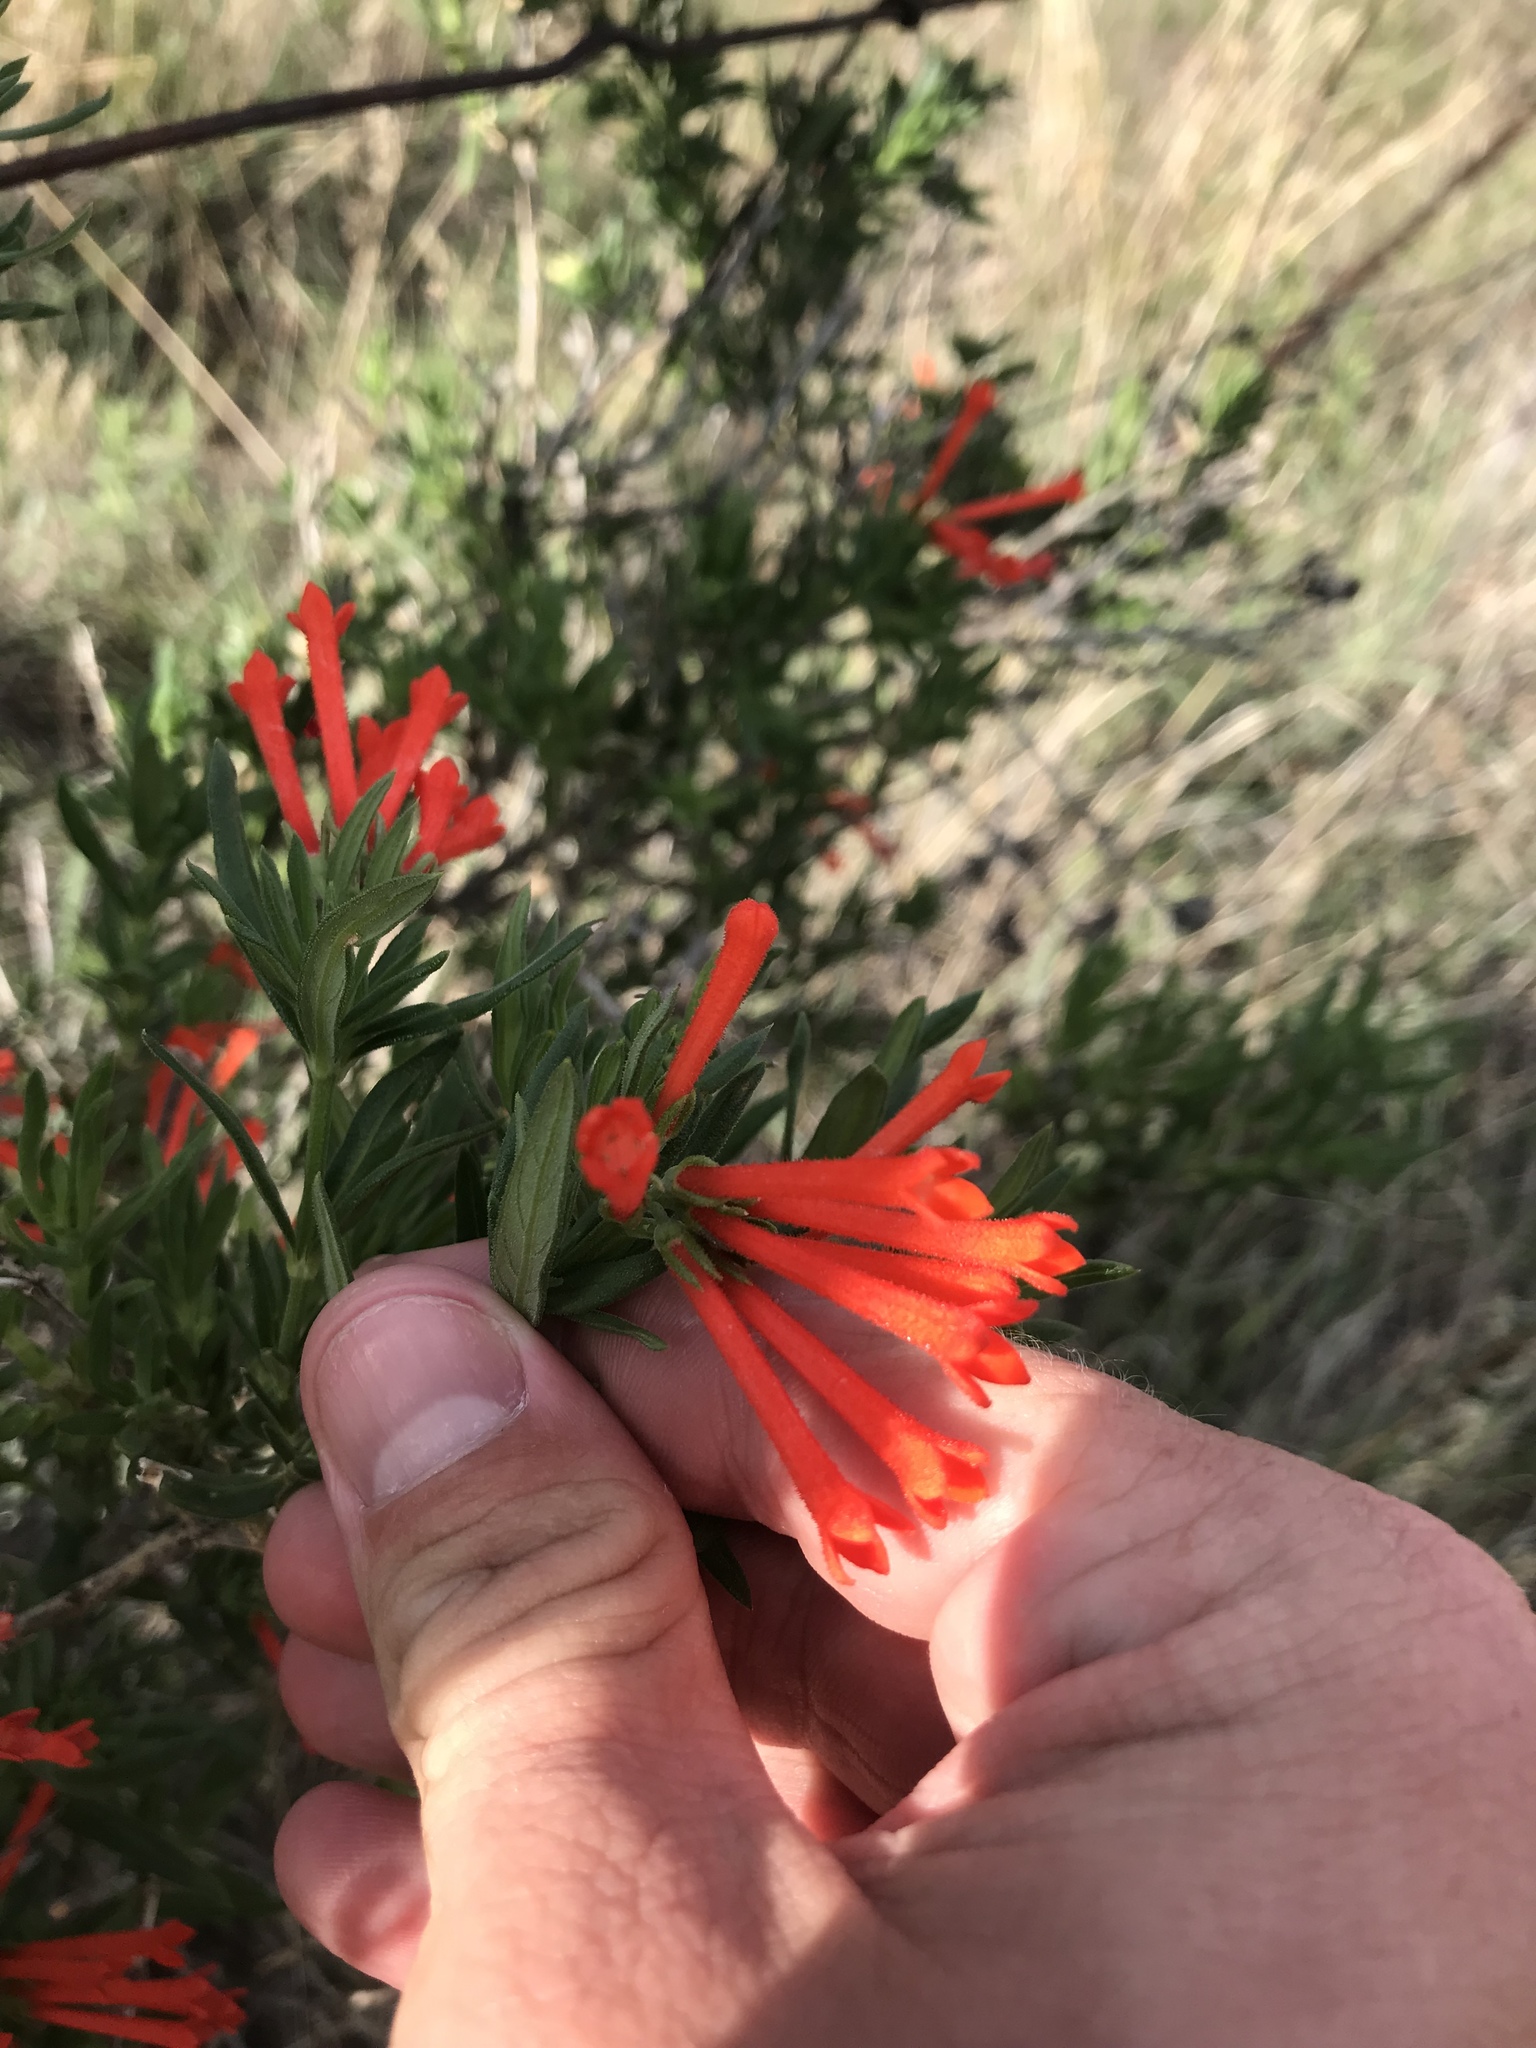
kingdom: Plantae
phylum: Tracheophyta
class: Magnoliopsida
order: Gentianales
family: Rubiaceae
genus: Bouvardia
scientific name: Bouvardia ternifolia
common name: Scarlet bouvardia
